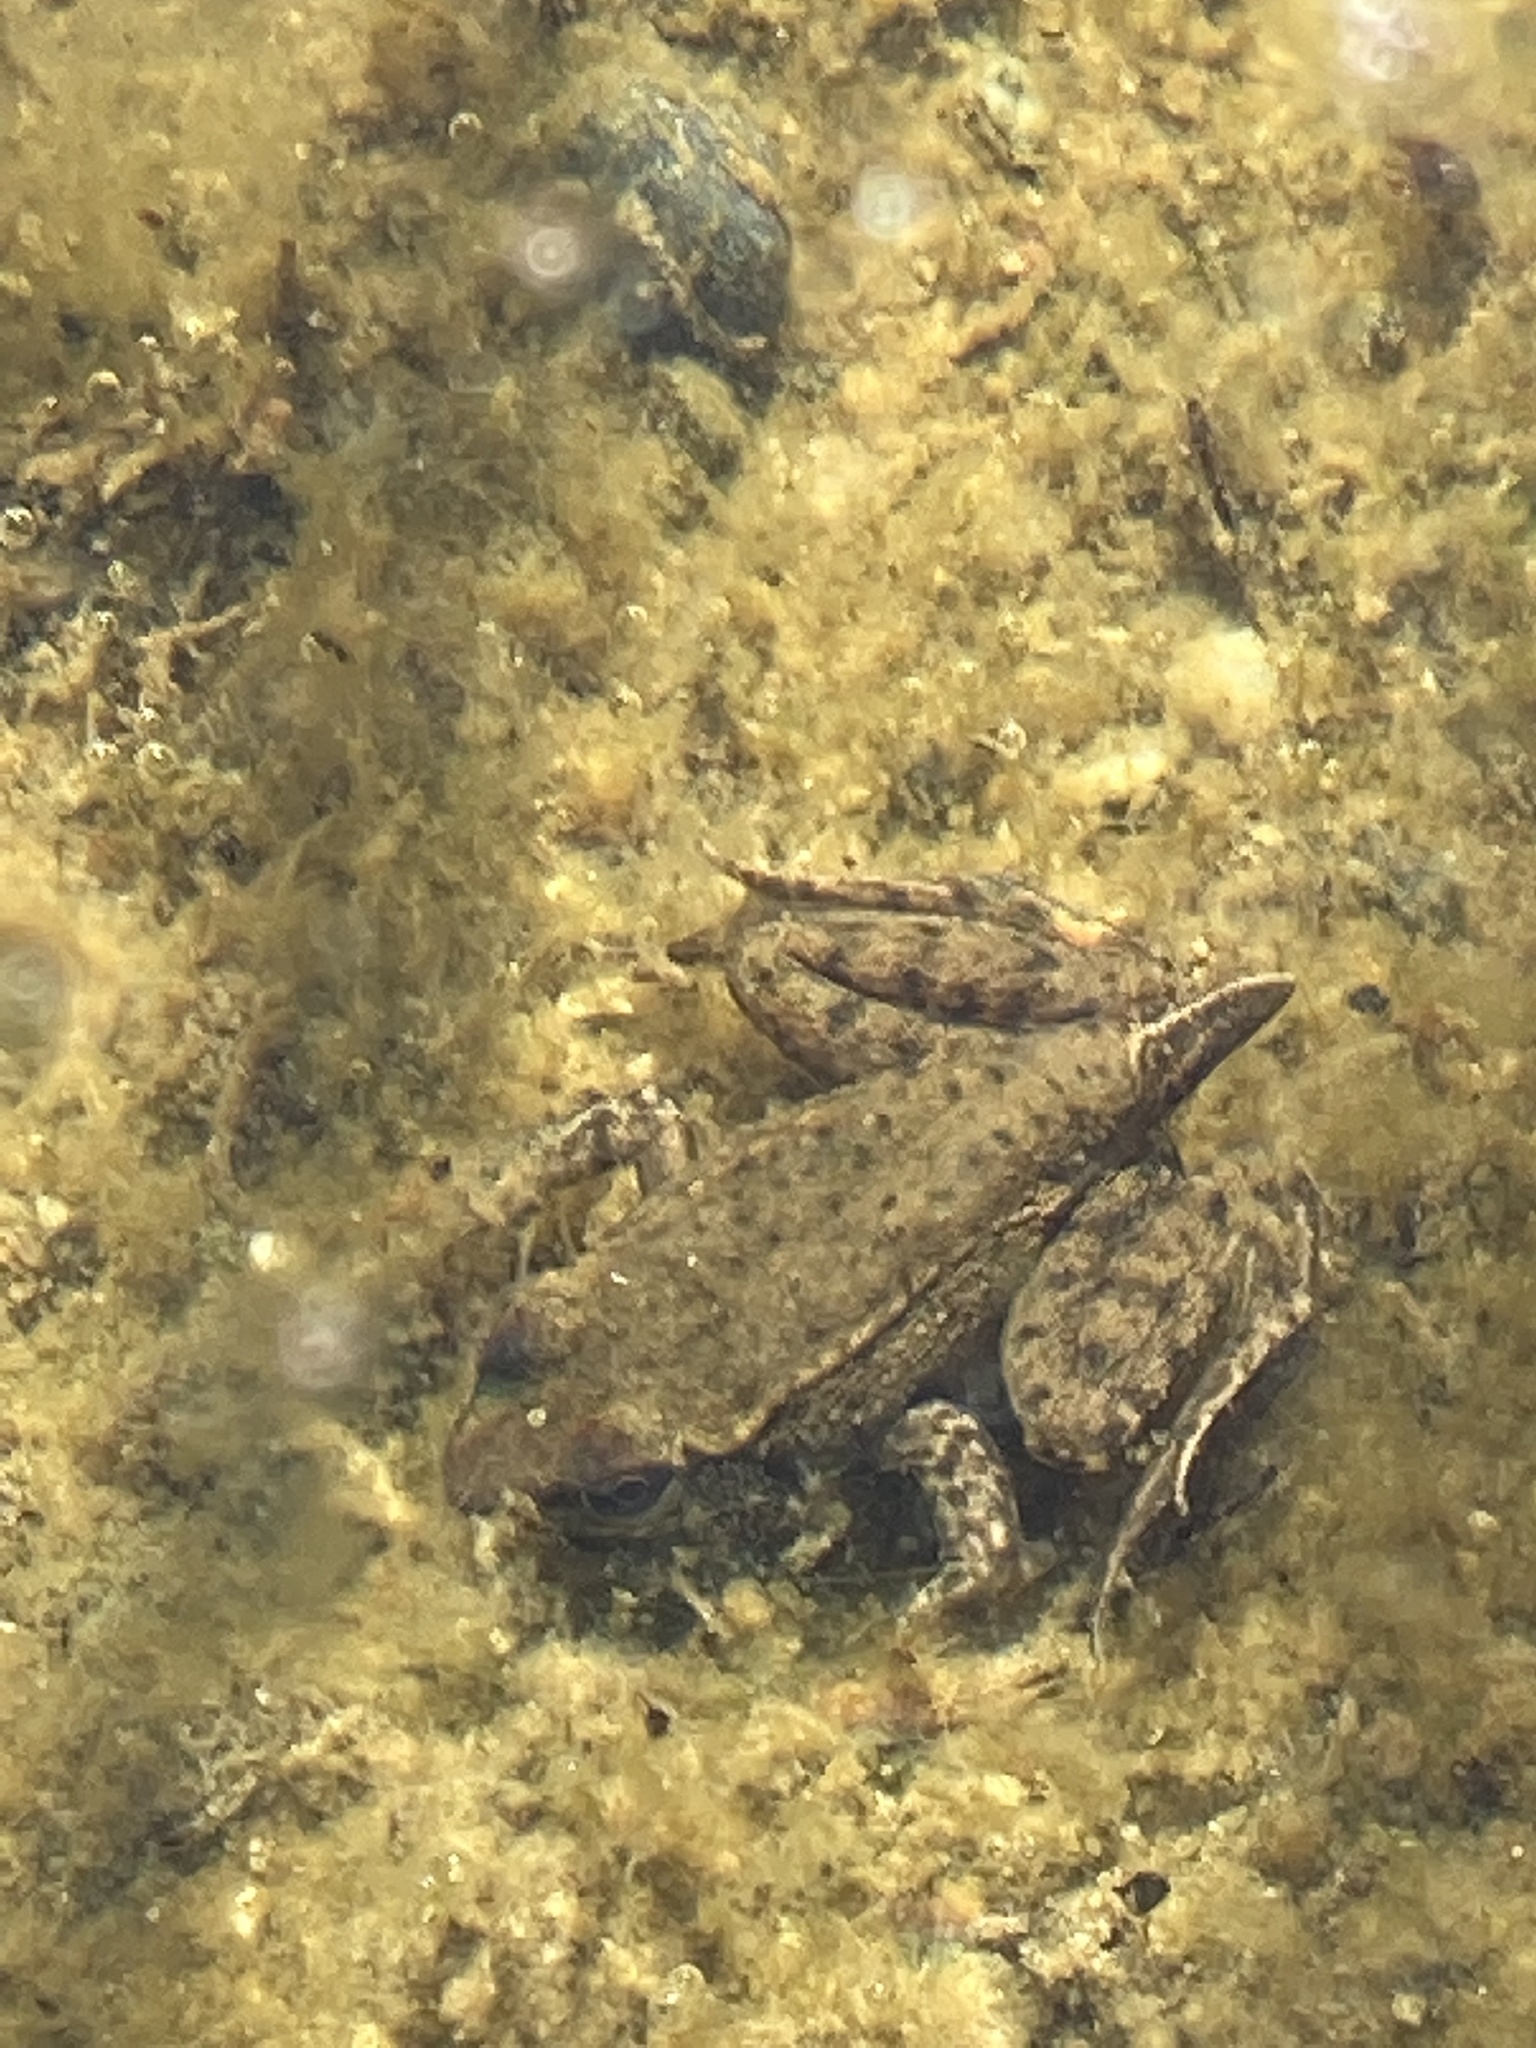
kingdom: Animalia
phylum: Chordata
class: Amphibia
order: Anura
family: Ranidae
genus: Rana
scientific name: Rana aurora
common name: Red-legged frog
